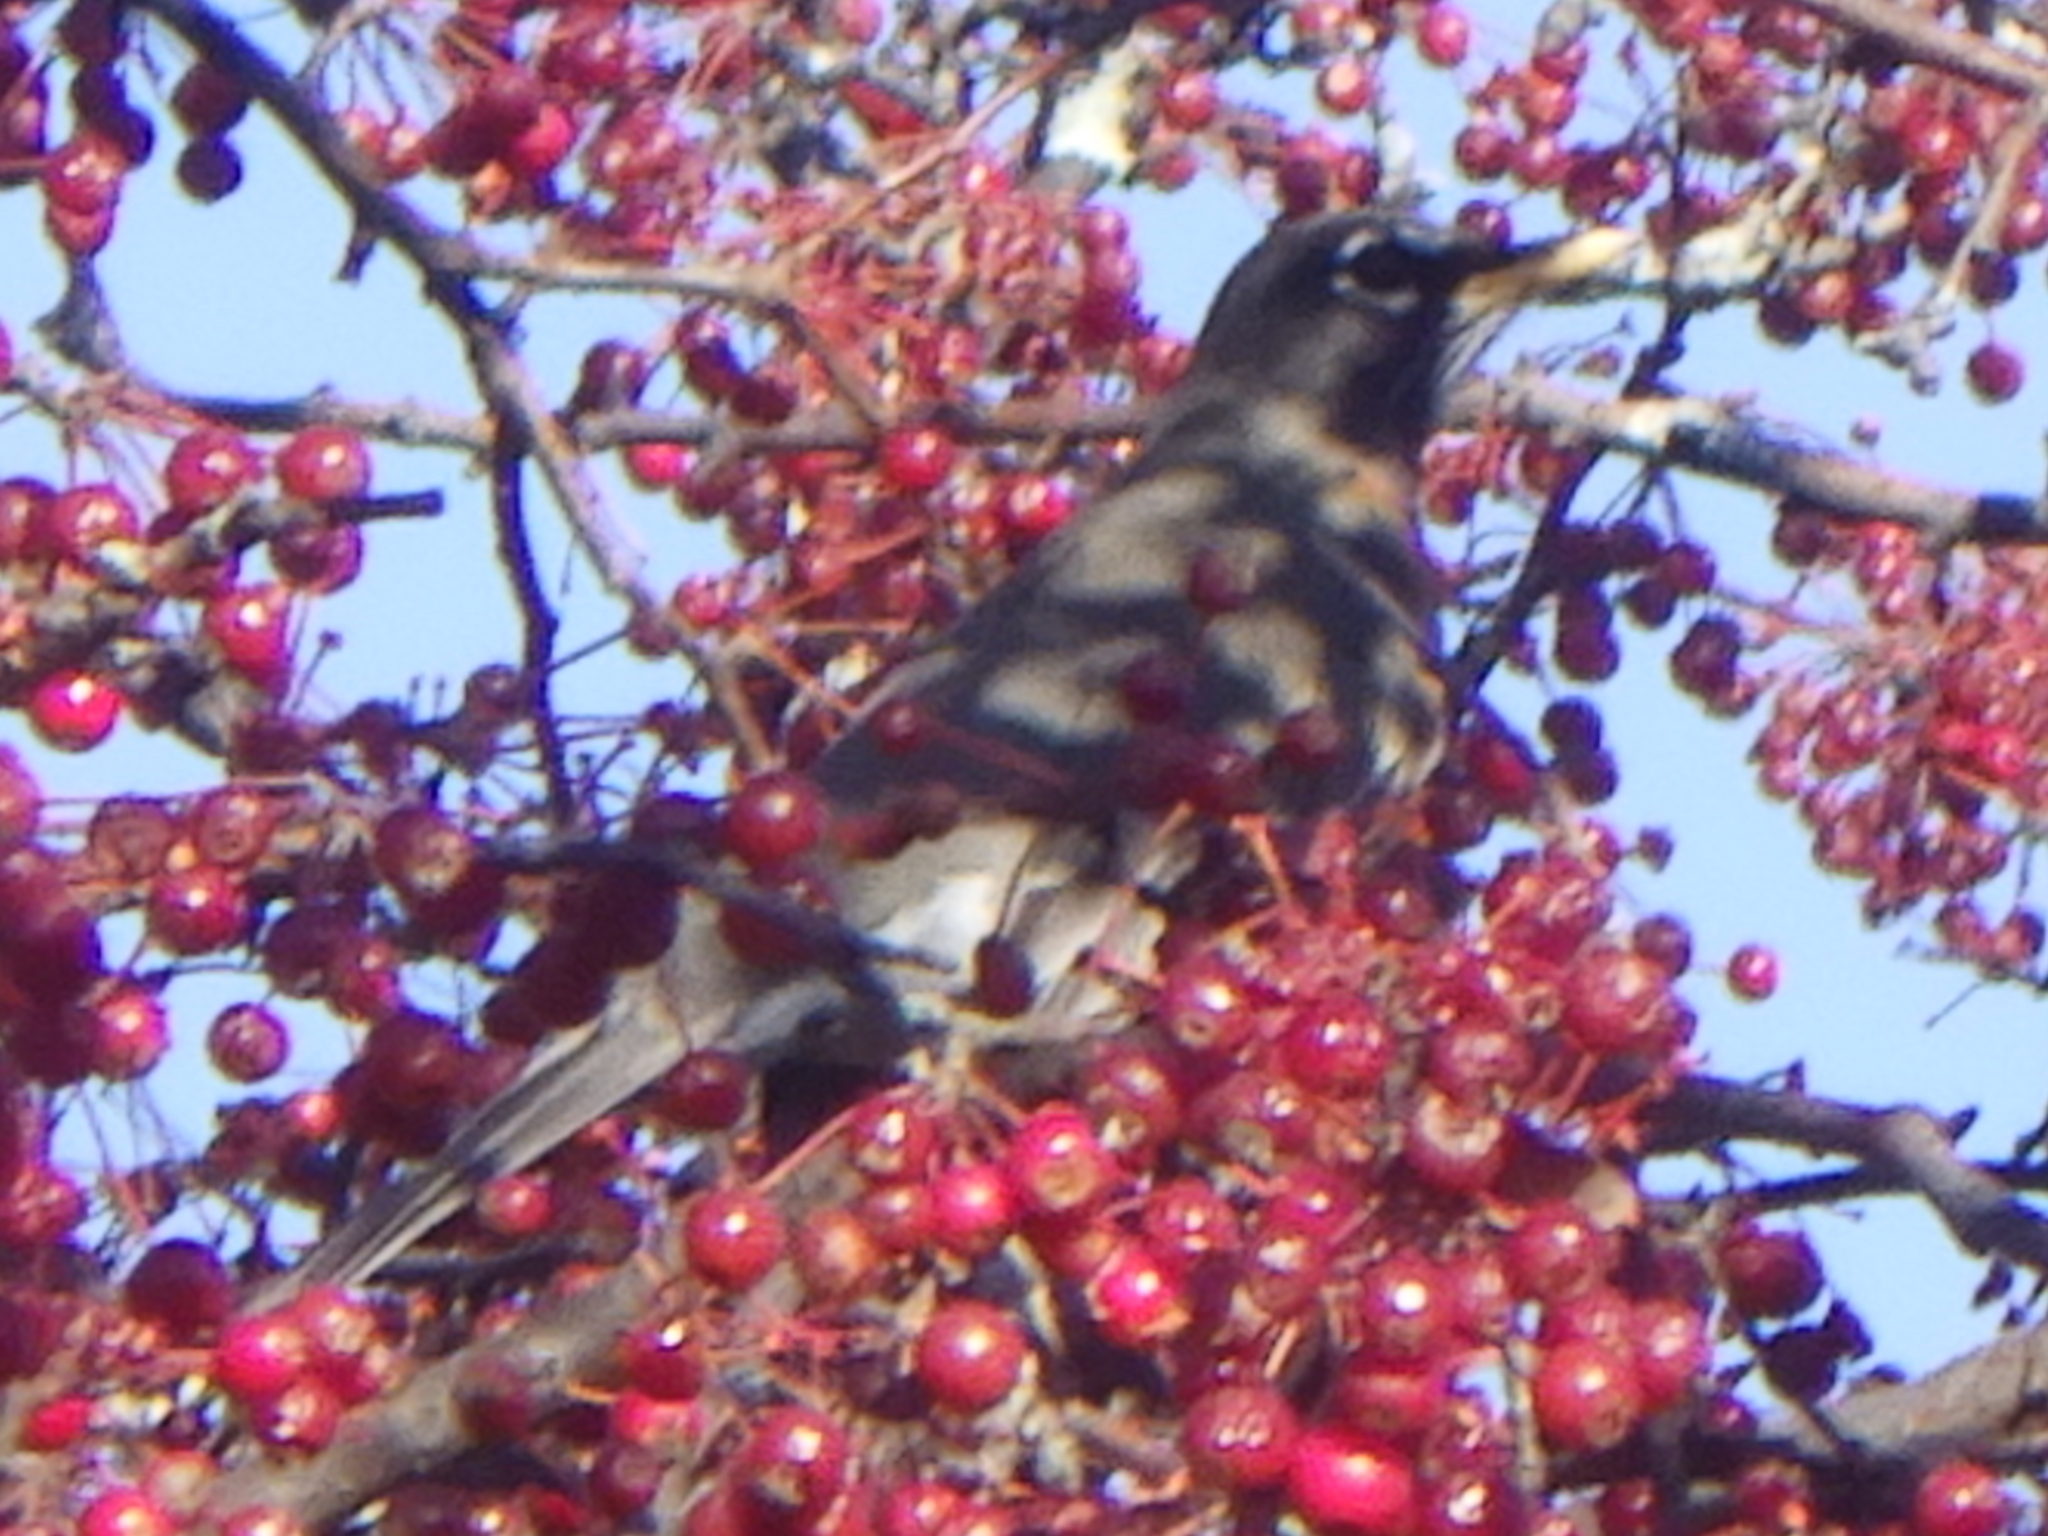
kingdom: Animalia
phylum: Chordata
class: Aves
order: Passeriformes
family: Turdidae
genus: Turdus
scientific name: Turdus migratorius
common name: American robin
